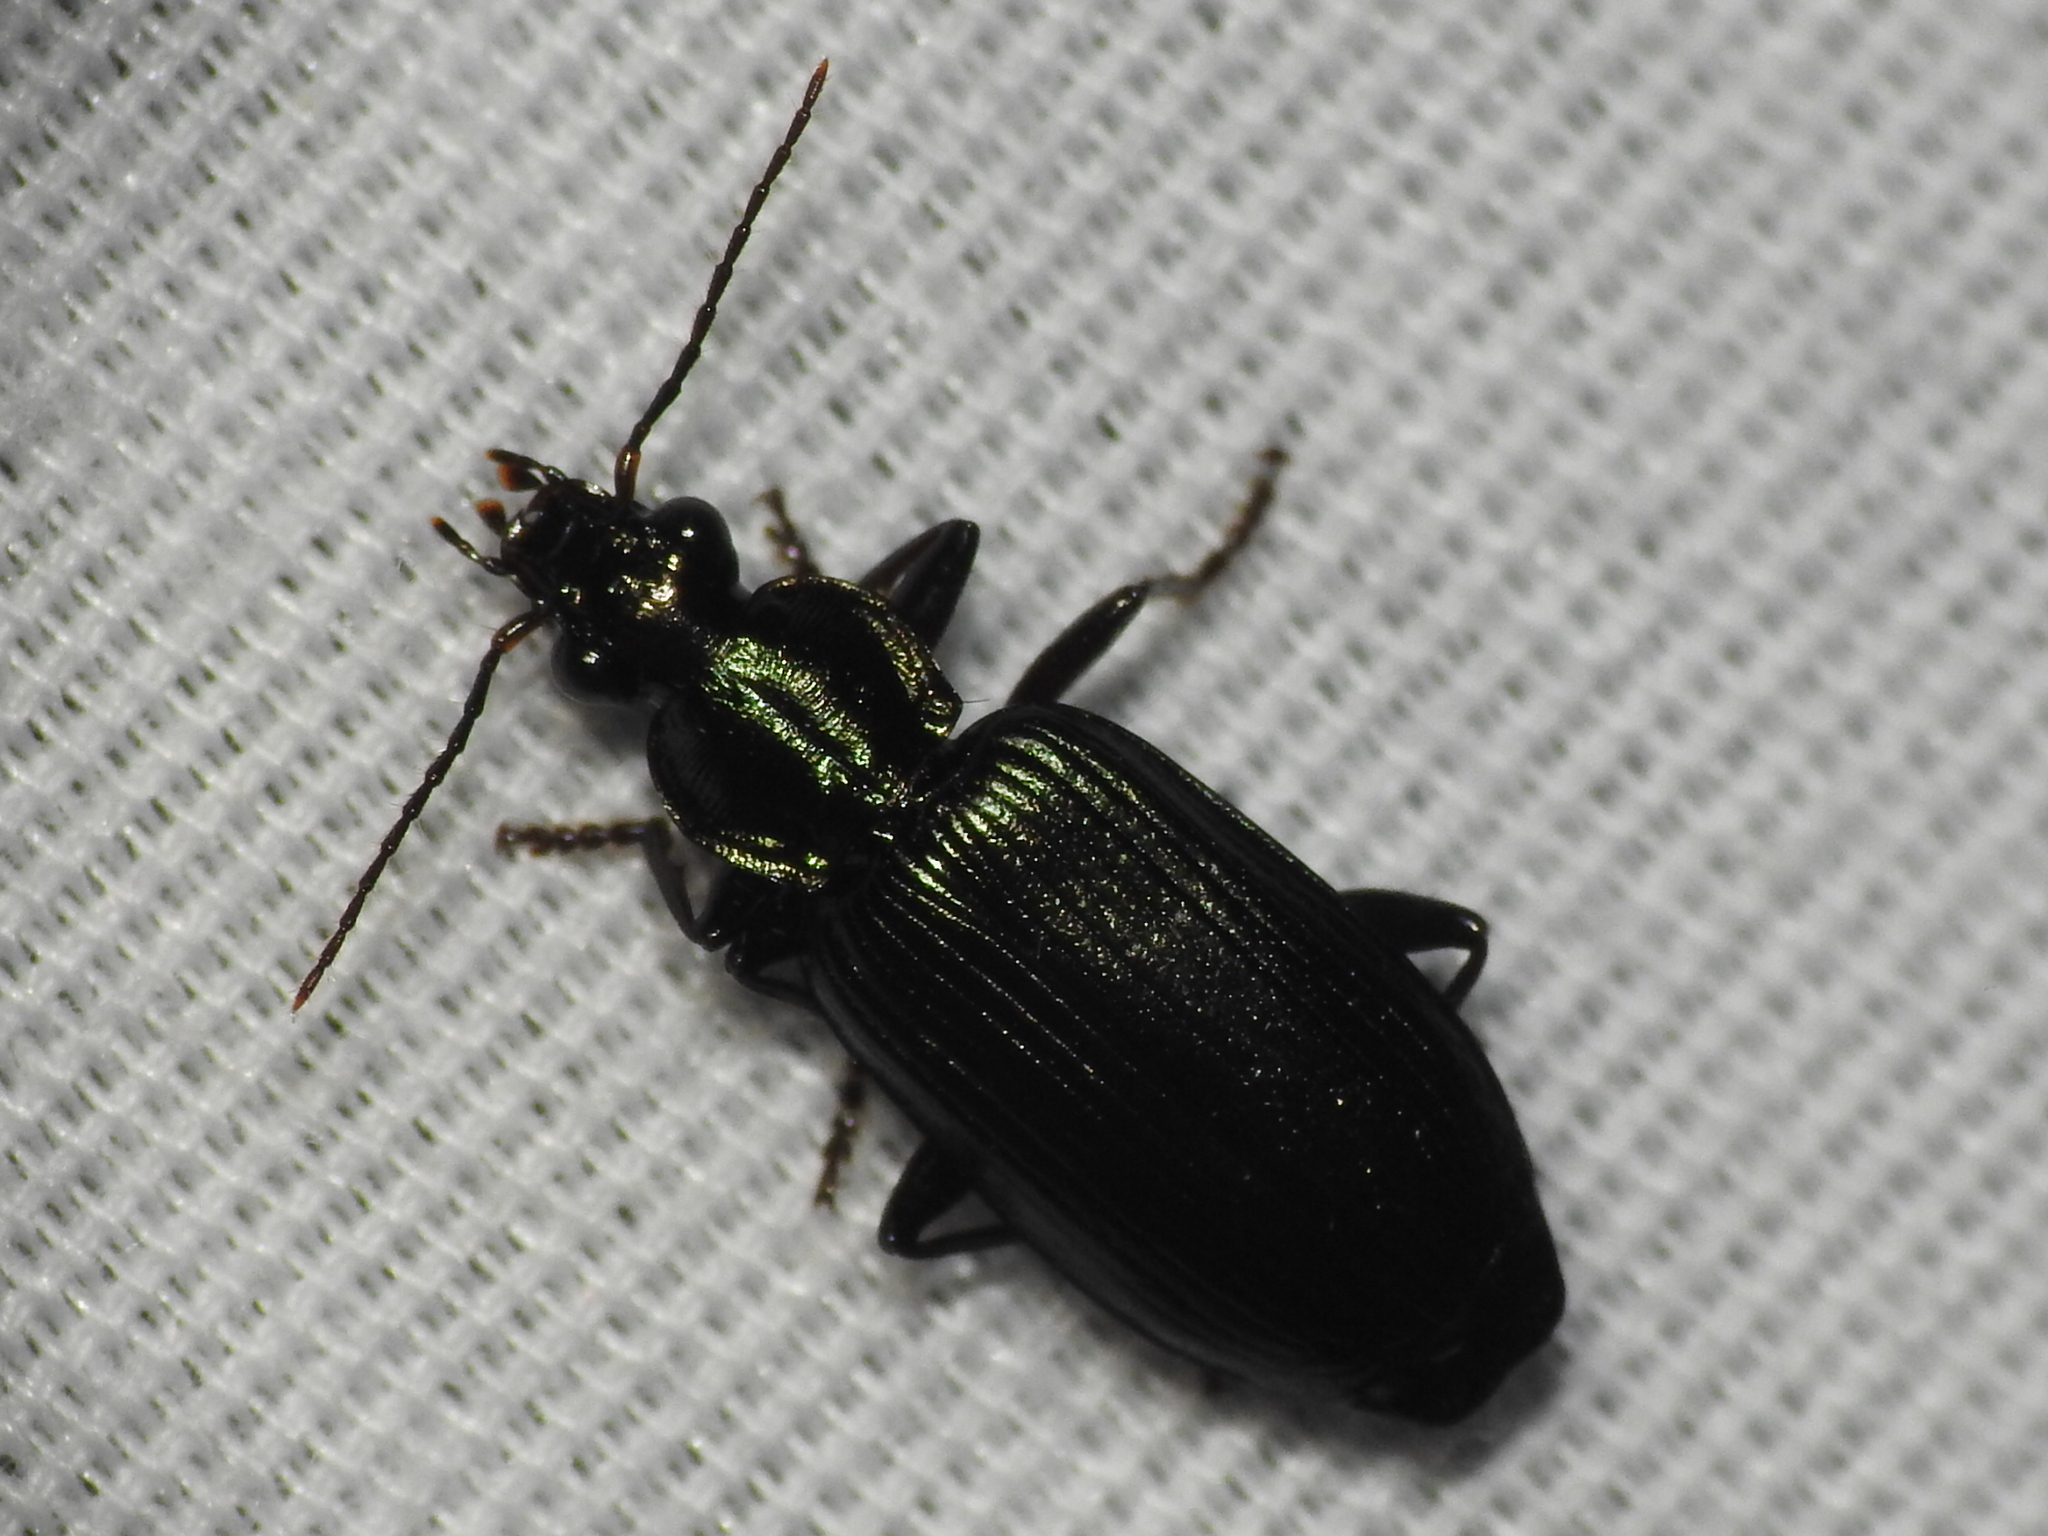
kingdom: Animalia
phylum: Arthropoda
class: Insecta
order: Coleoptera
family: Carabidae
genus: Calleida
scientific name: Calleida punctulata
